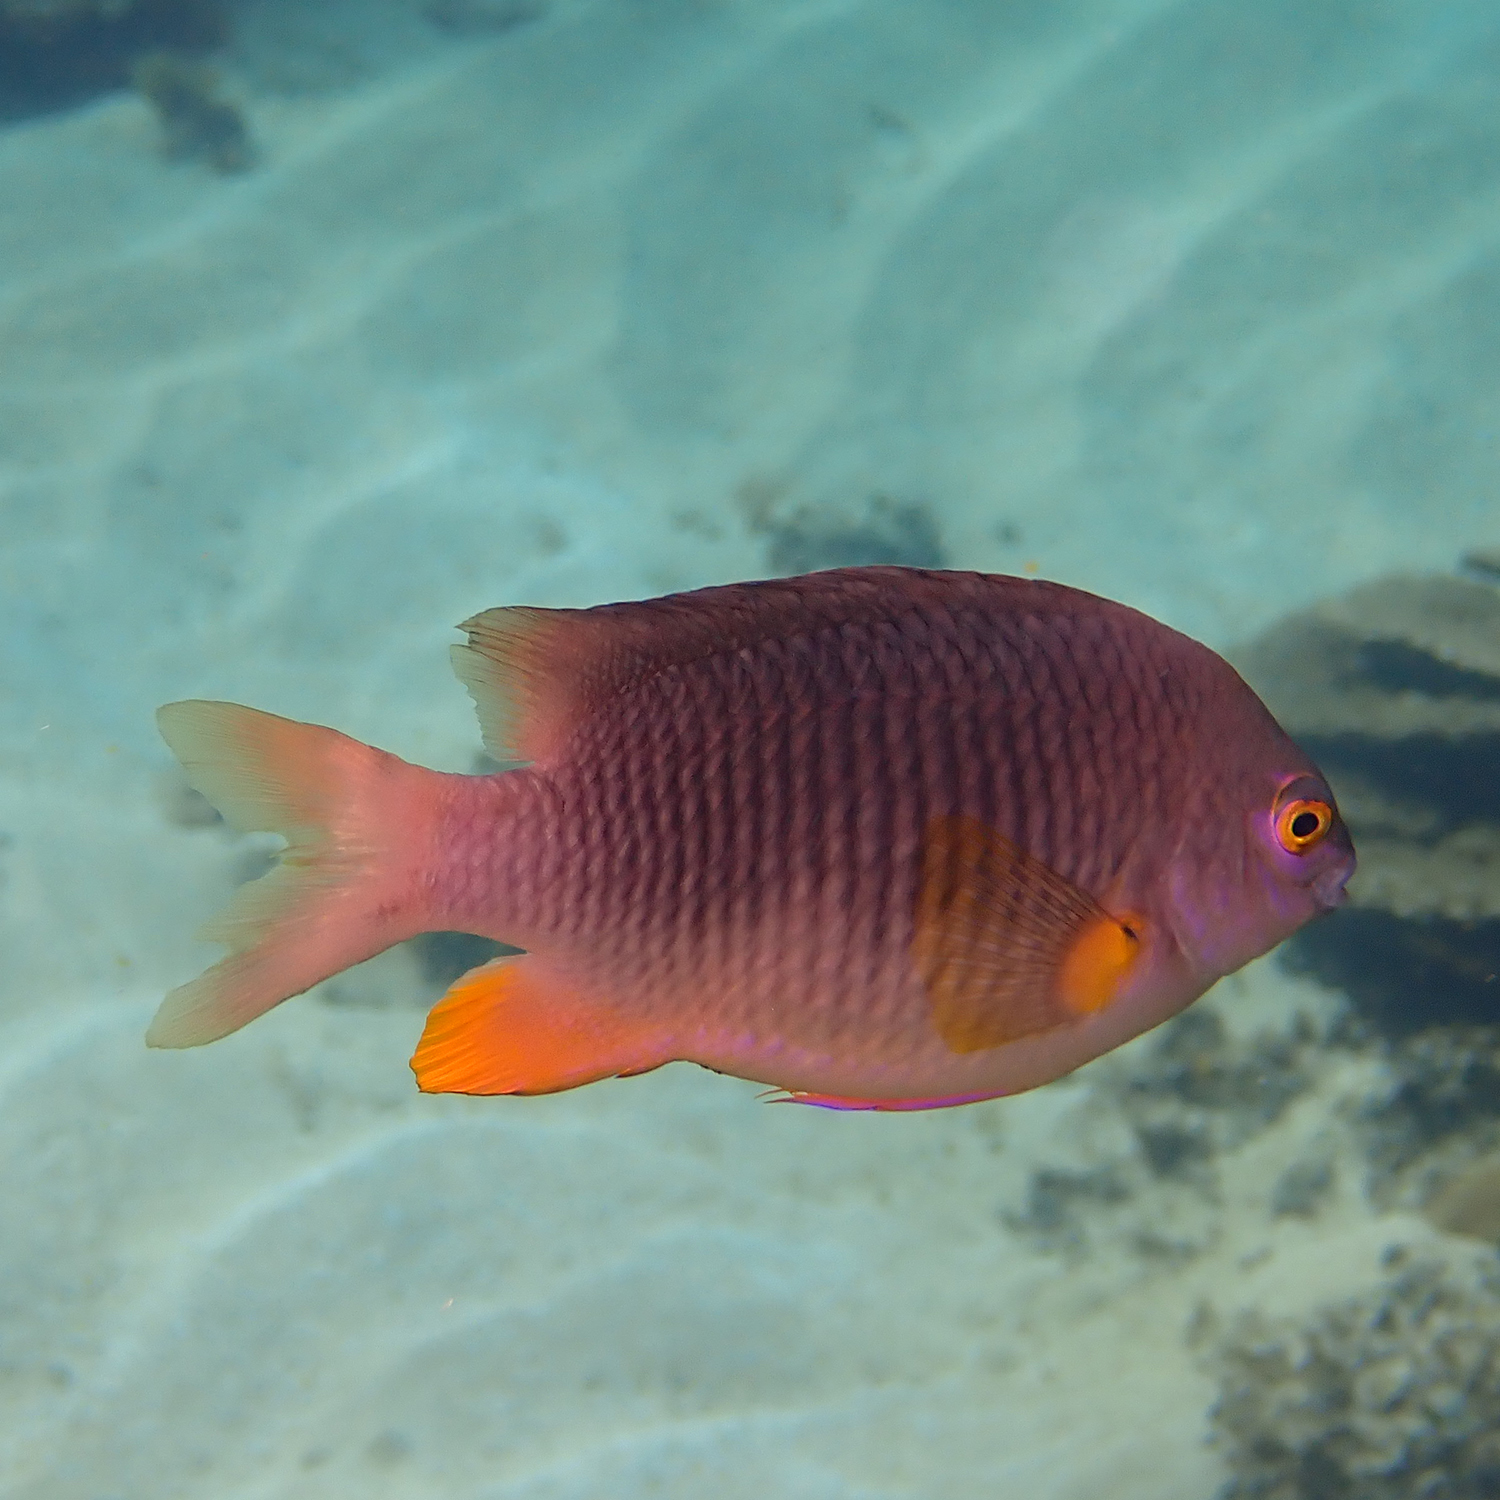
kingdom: Animalia
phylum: Chordata
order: Perciformes
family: Pomacentridae
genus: Stegastes
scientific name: Stegastes gascoynei
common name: Coral sea gregory
